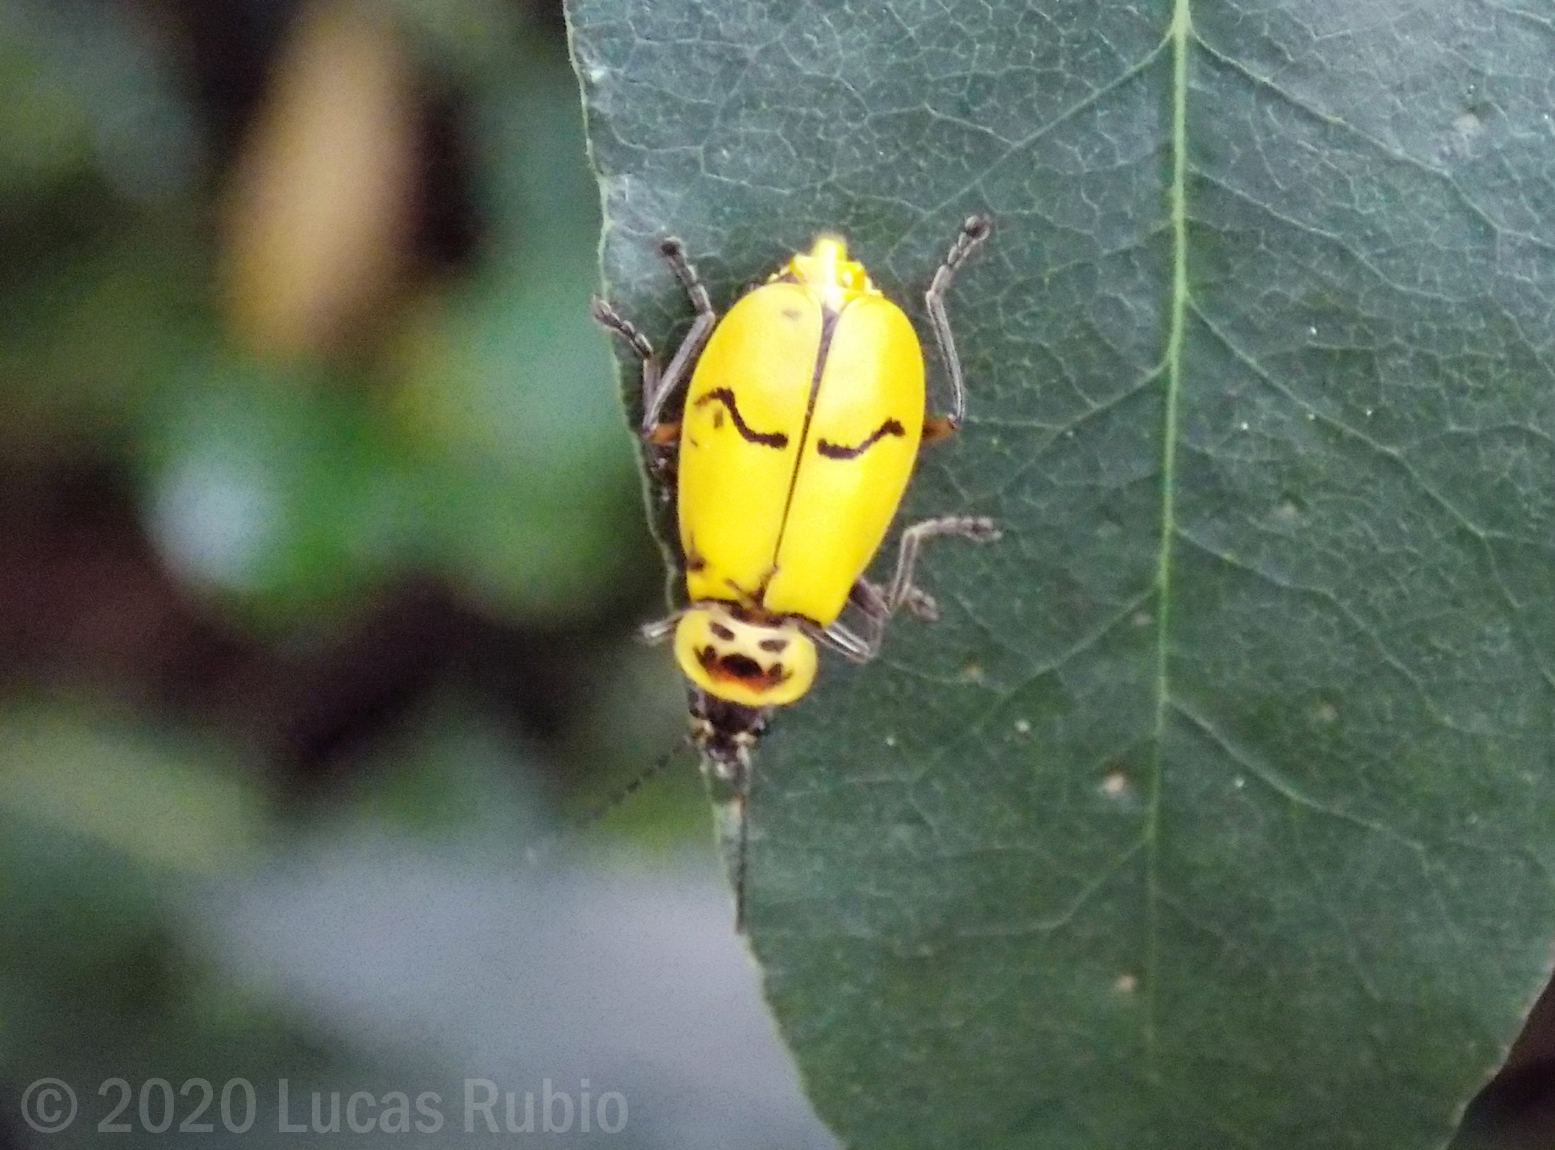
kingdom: Animalia
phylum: Arthropoda
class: Insecta
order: Coleoptera
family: Cantharidae
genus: Chauliognathus
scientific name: Chauliognathus
